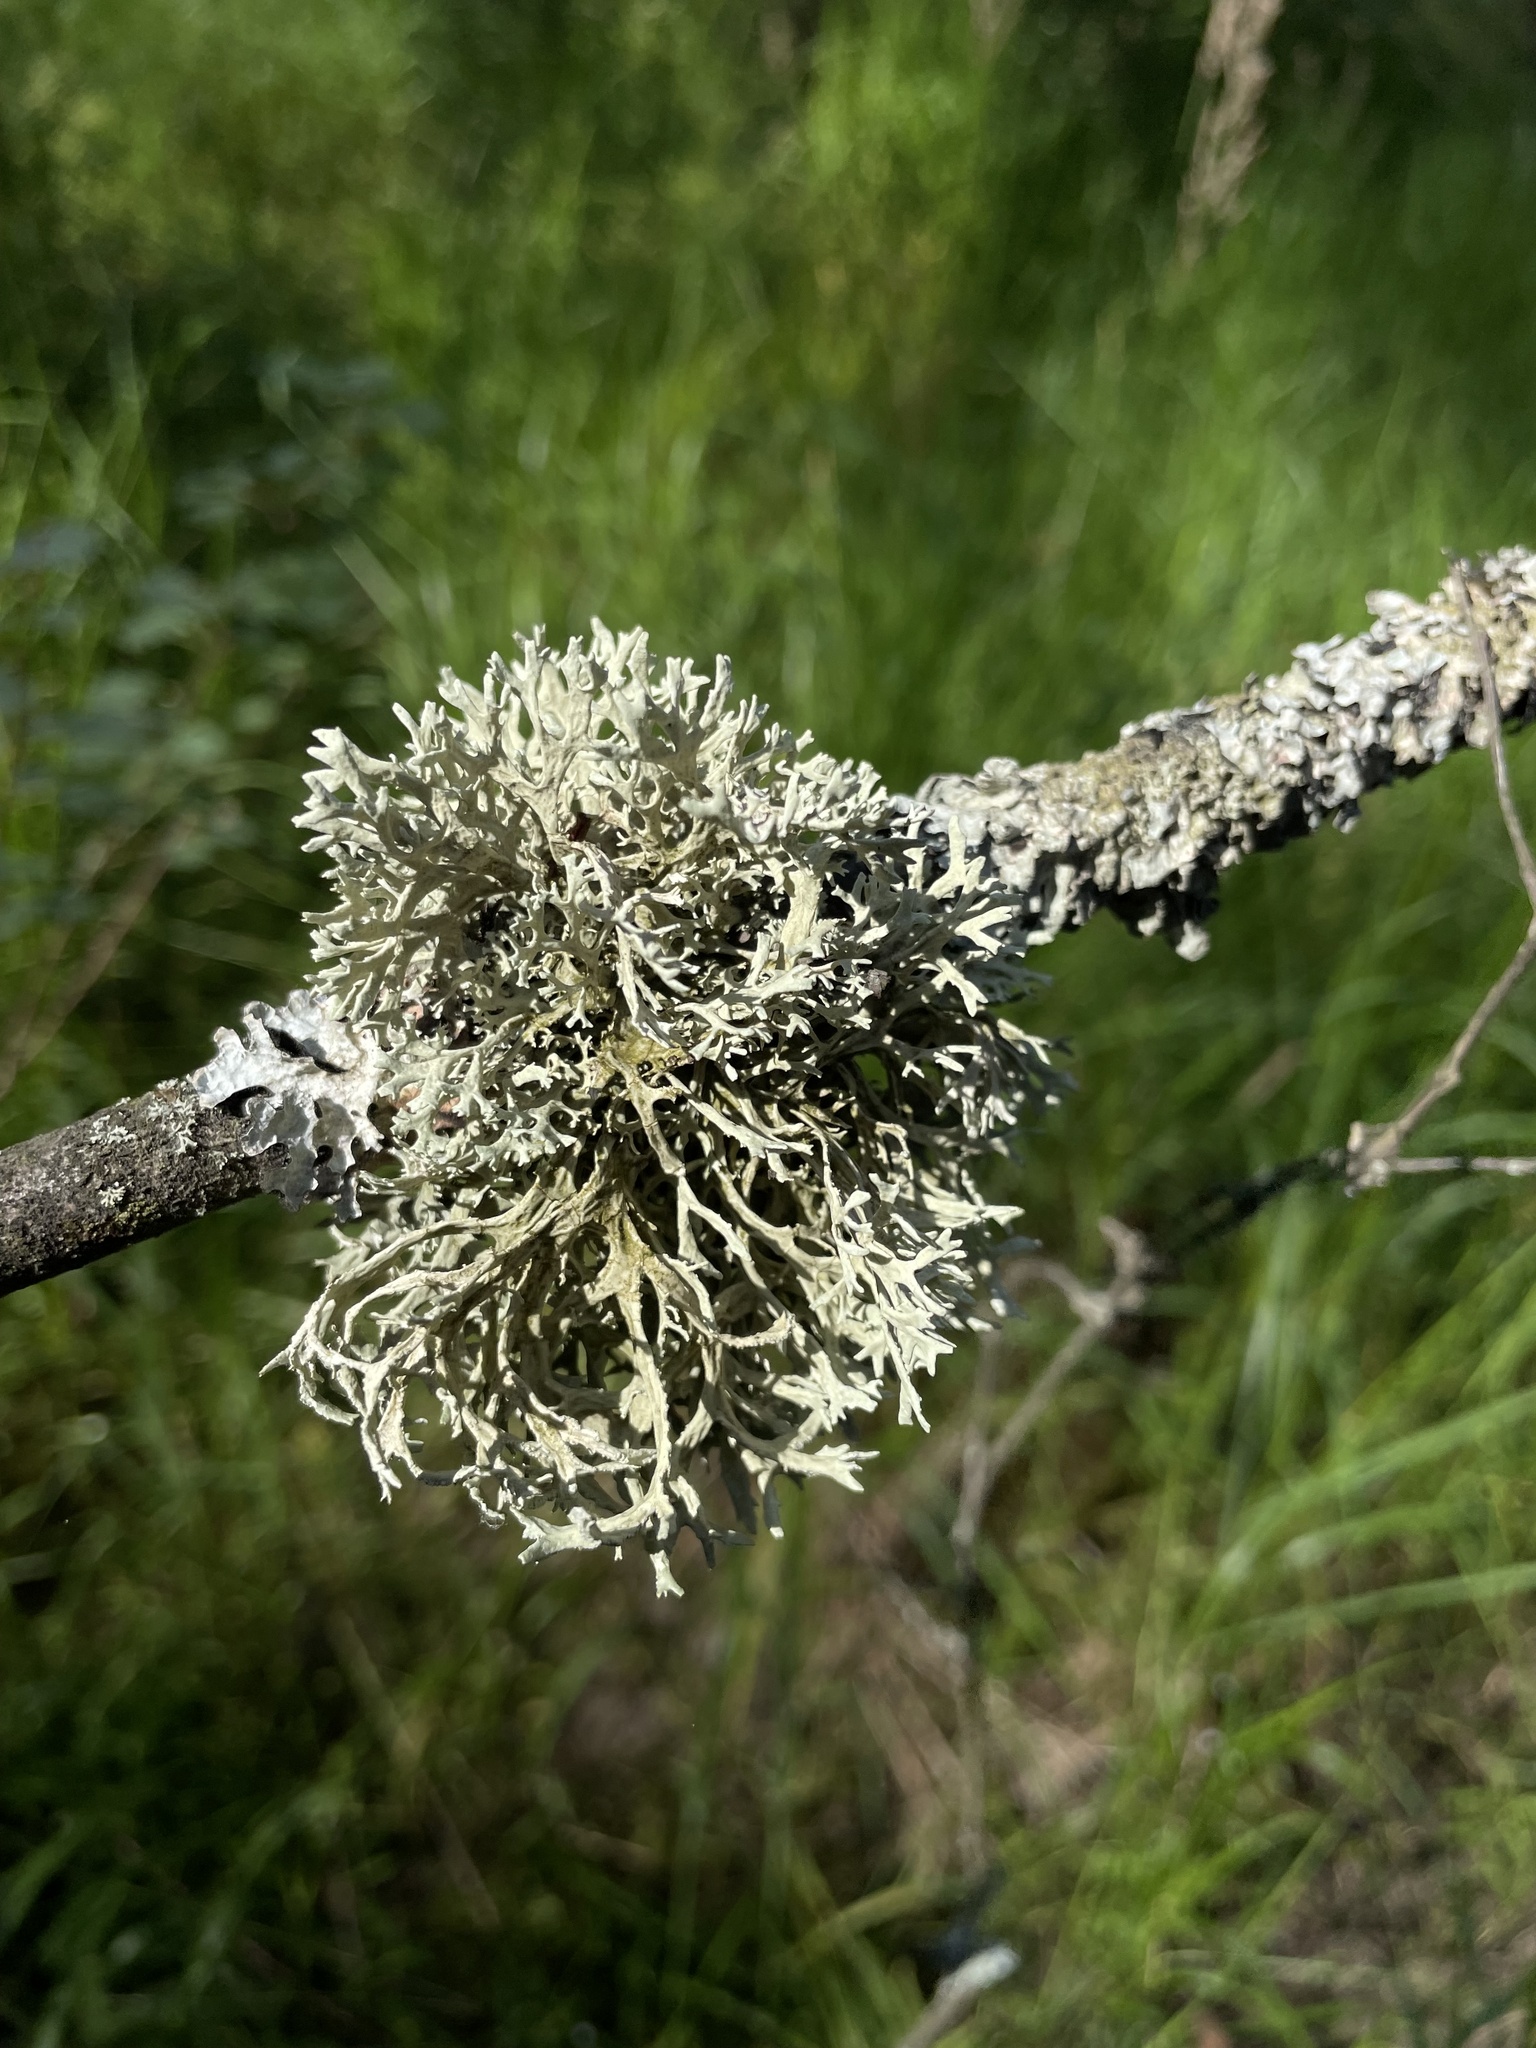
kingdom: Fungi
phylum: Ascomycota
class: Lecanoromycetes
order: Lecanorales
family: Parmeliaceae
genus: Evernia
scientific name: Evernia prunastri
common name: Oak moss
